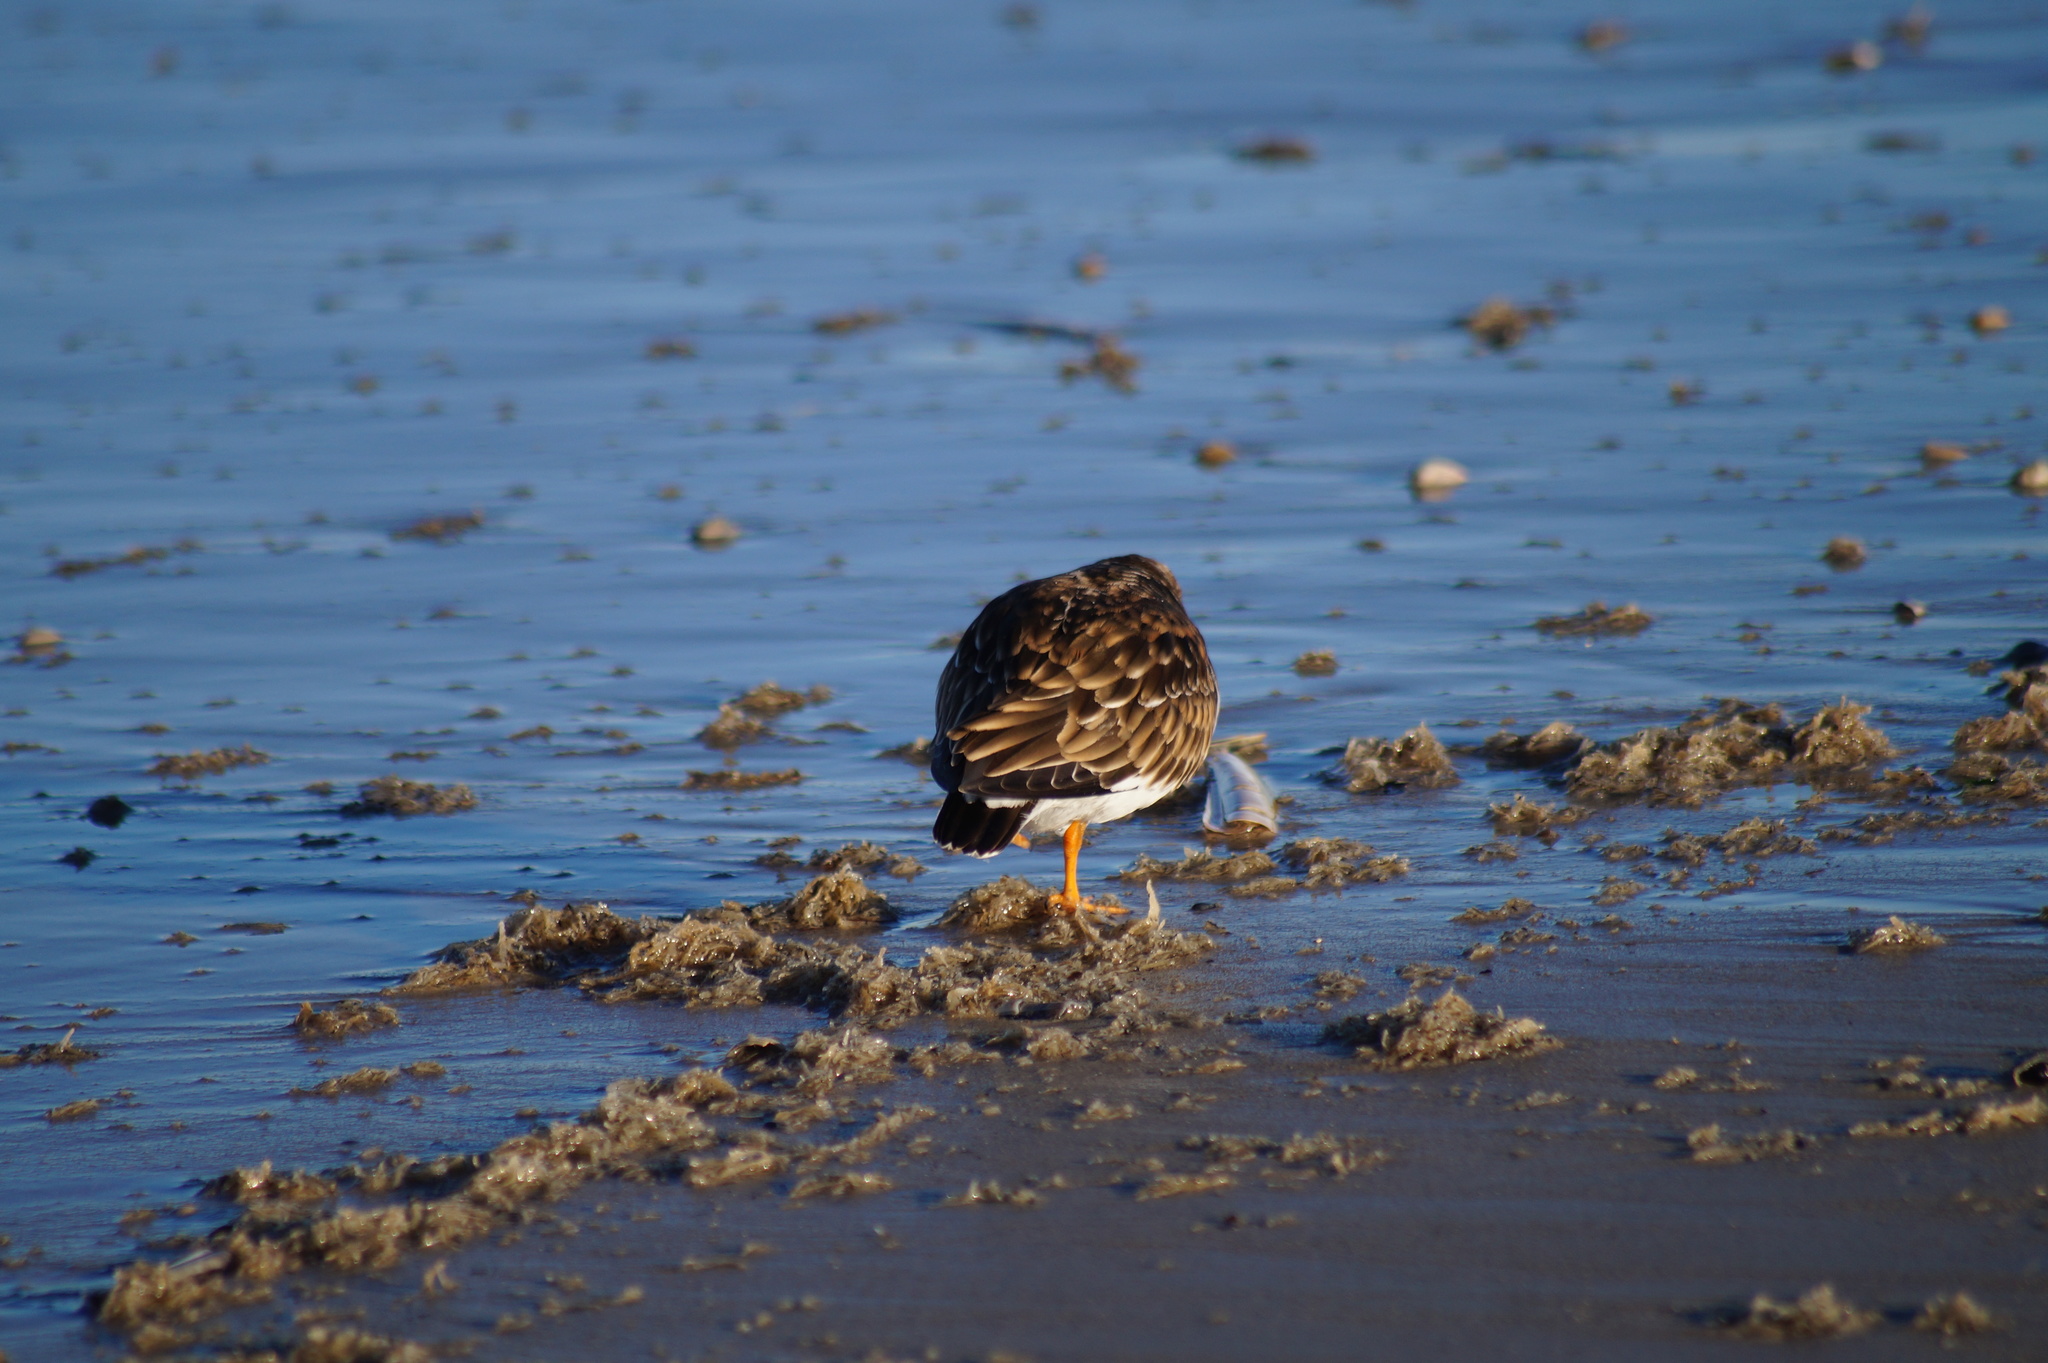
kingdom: Animalia
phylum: Chordata
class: Aves
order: Charadriiformes
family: Scolopacidae
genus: Arenaria
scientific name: Arenaria interpres
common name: Ruddy turnstone
